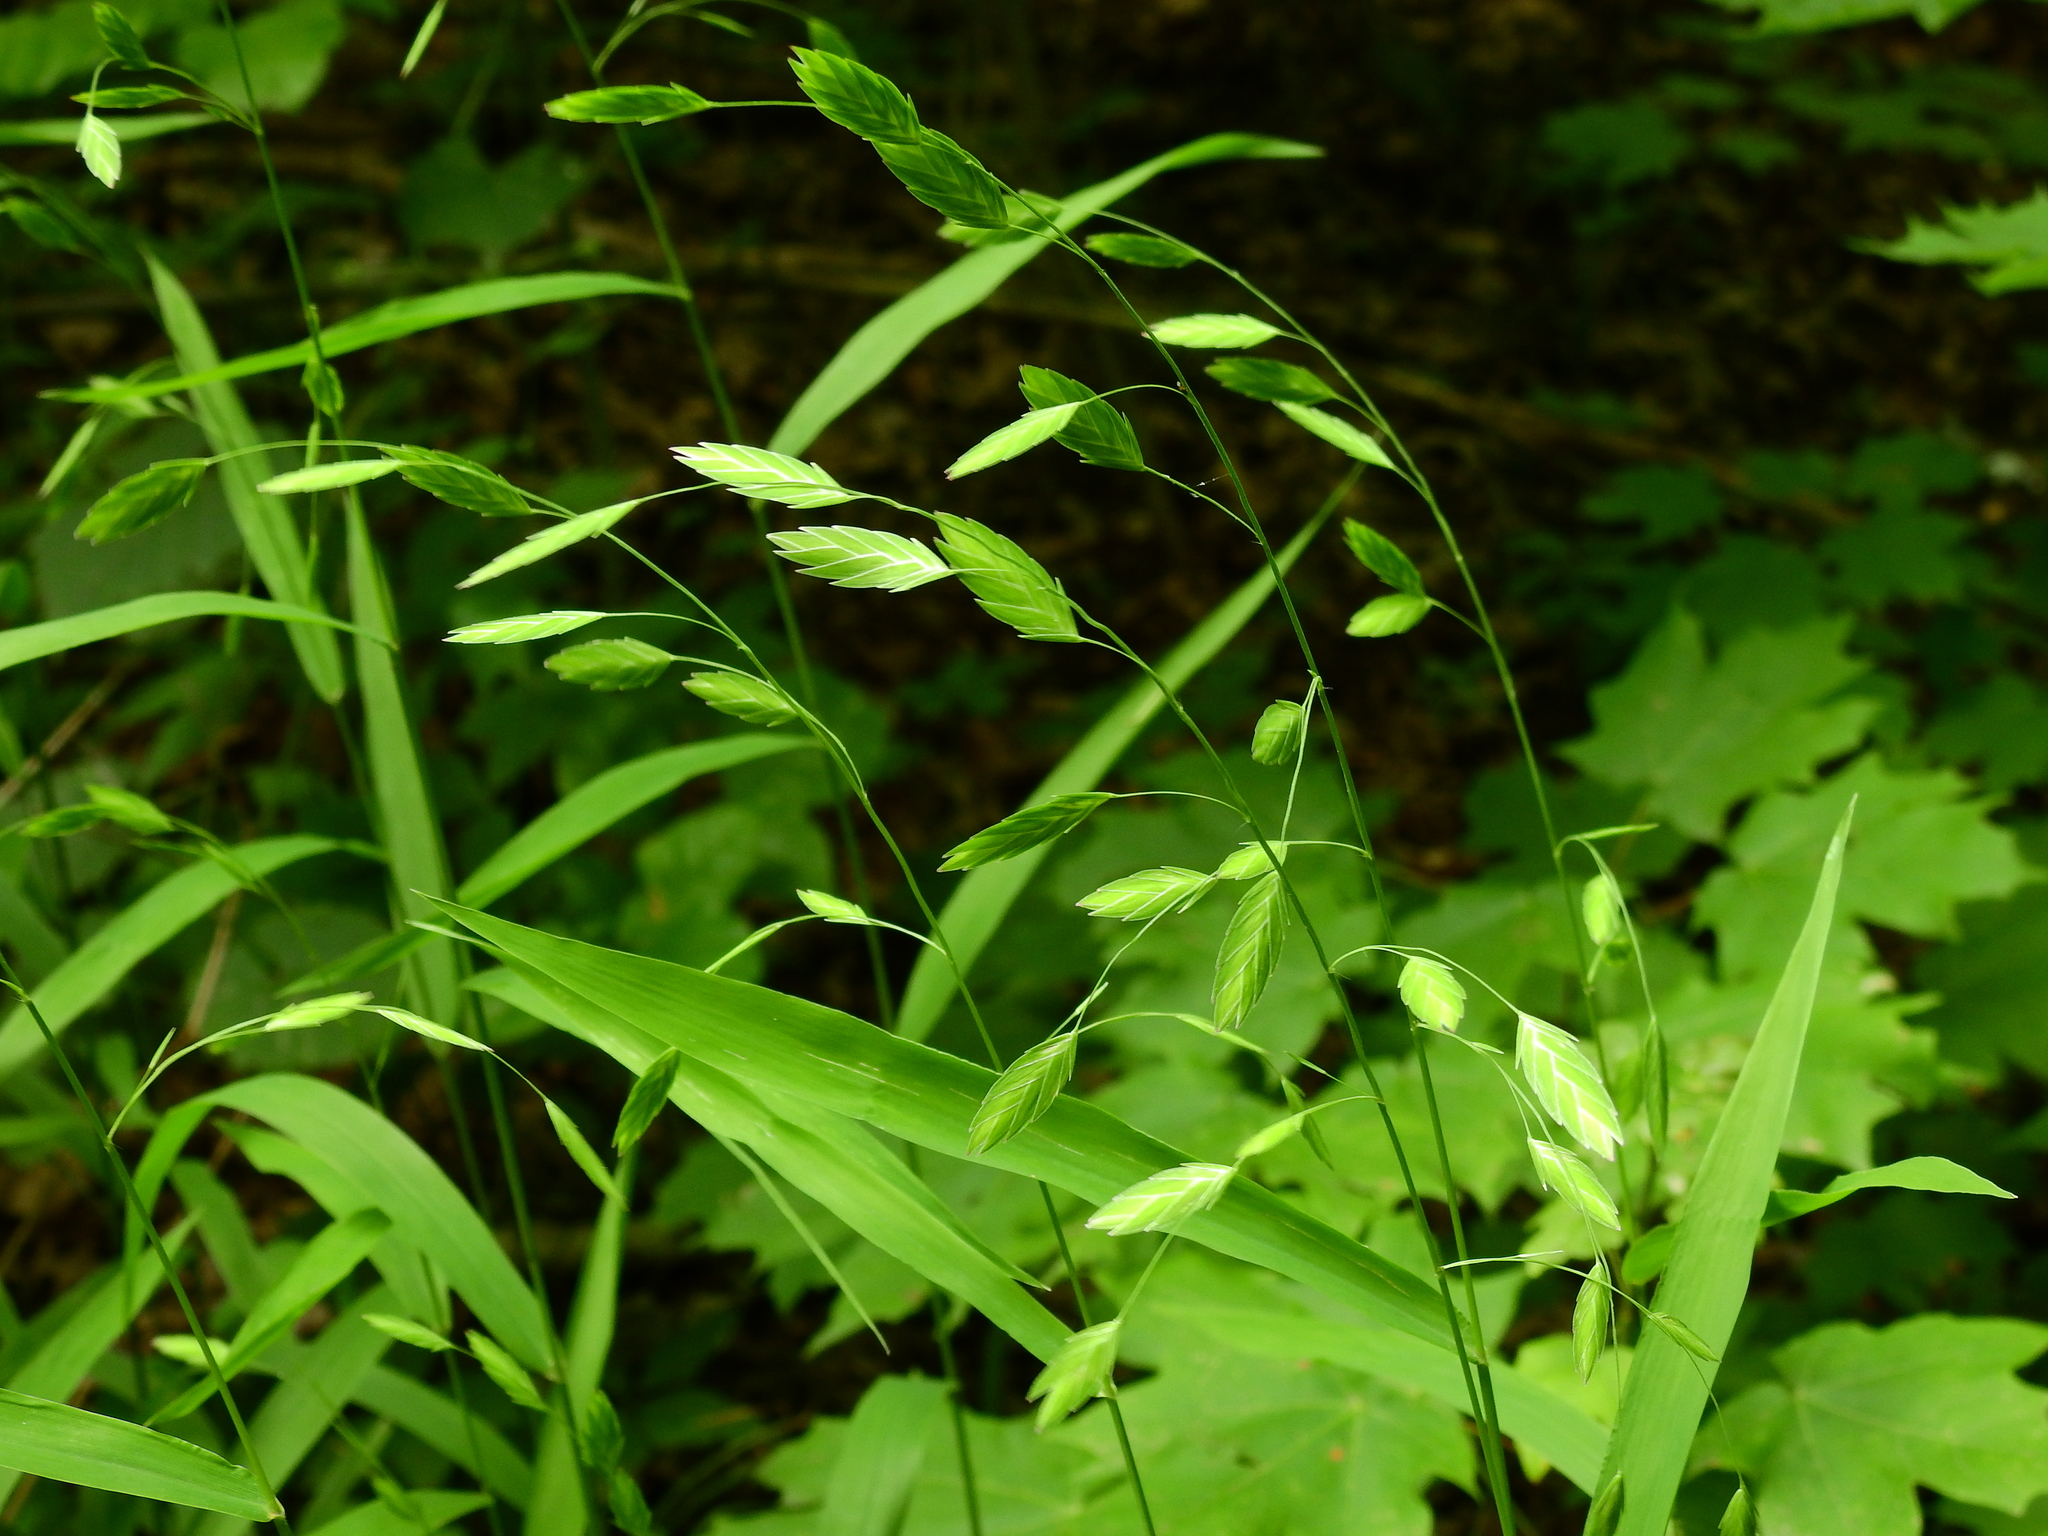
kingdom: Plantae
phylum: Tracheophyta
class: Liliopsida
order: Poales
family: Poaceae
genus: Chasmanthium
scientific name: Chasmanthium latifolium
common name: Broad-leaved chasmanthium
